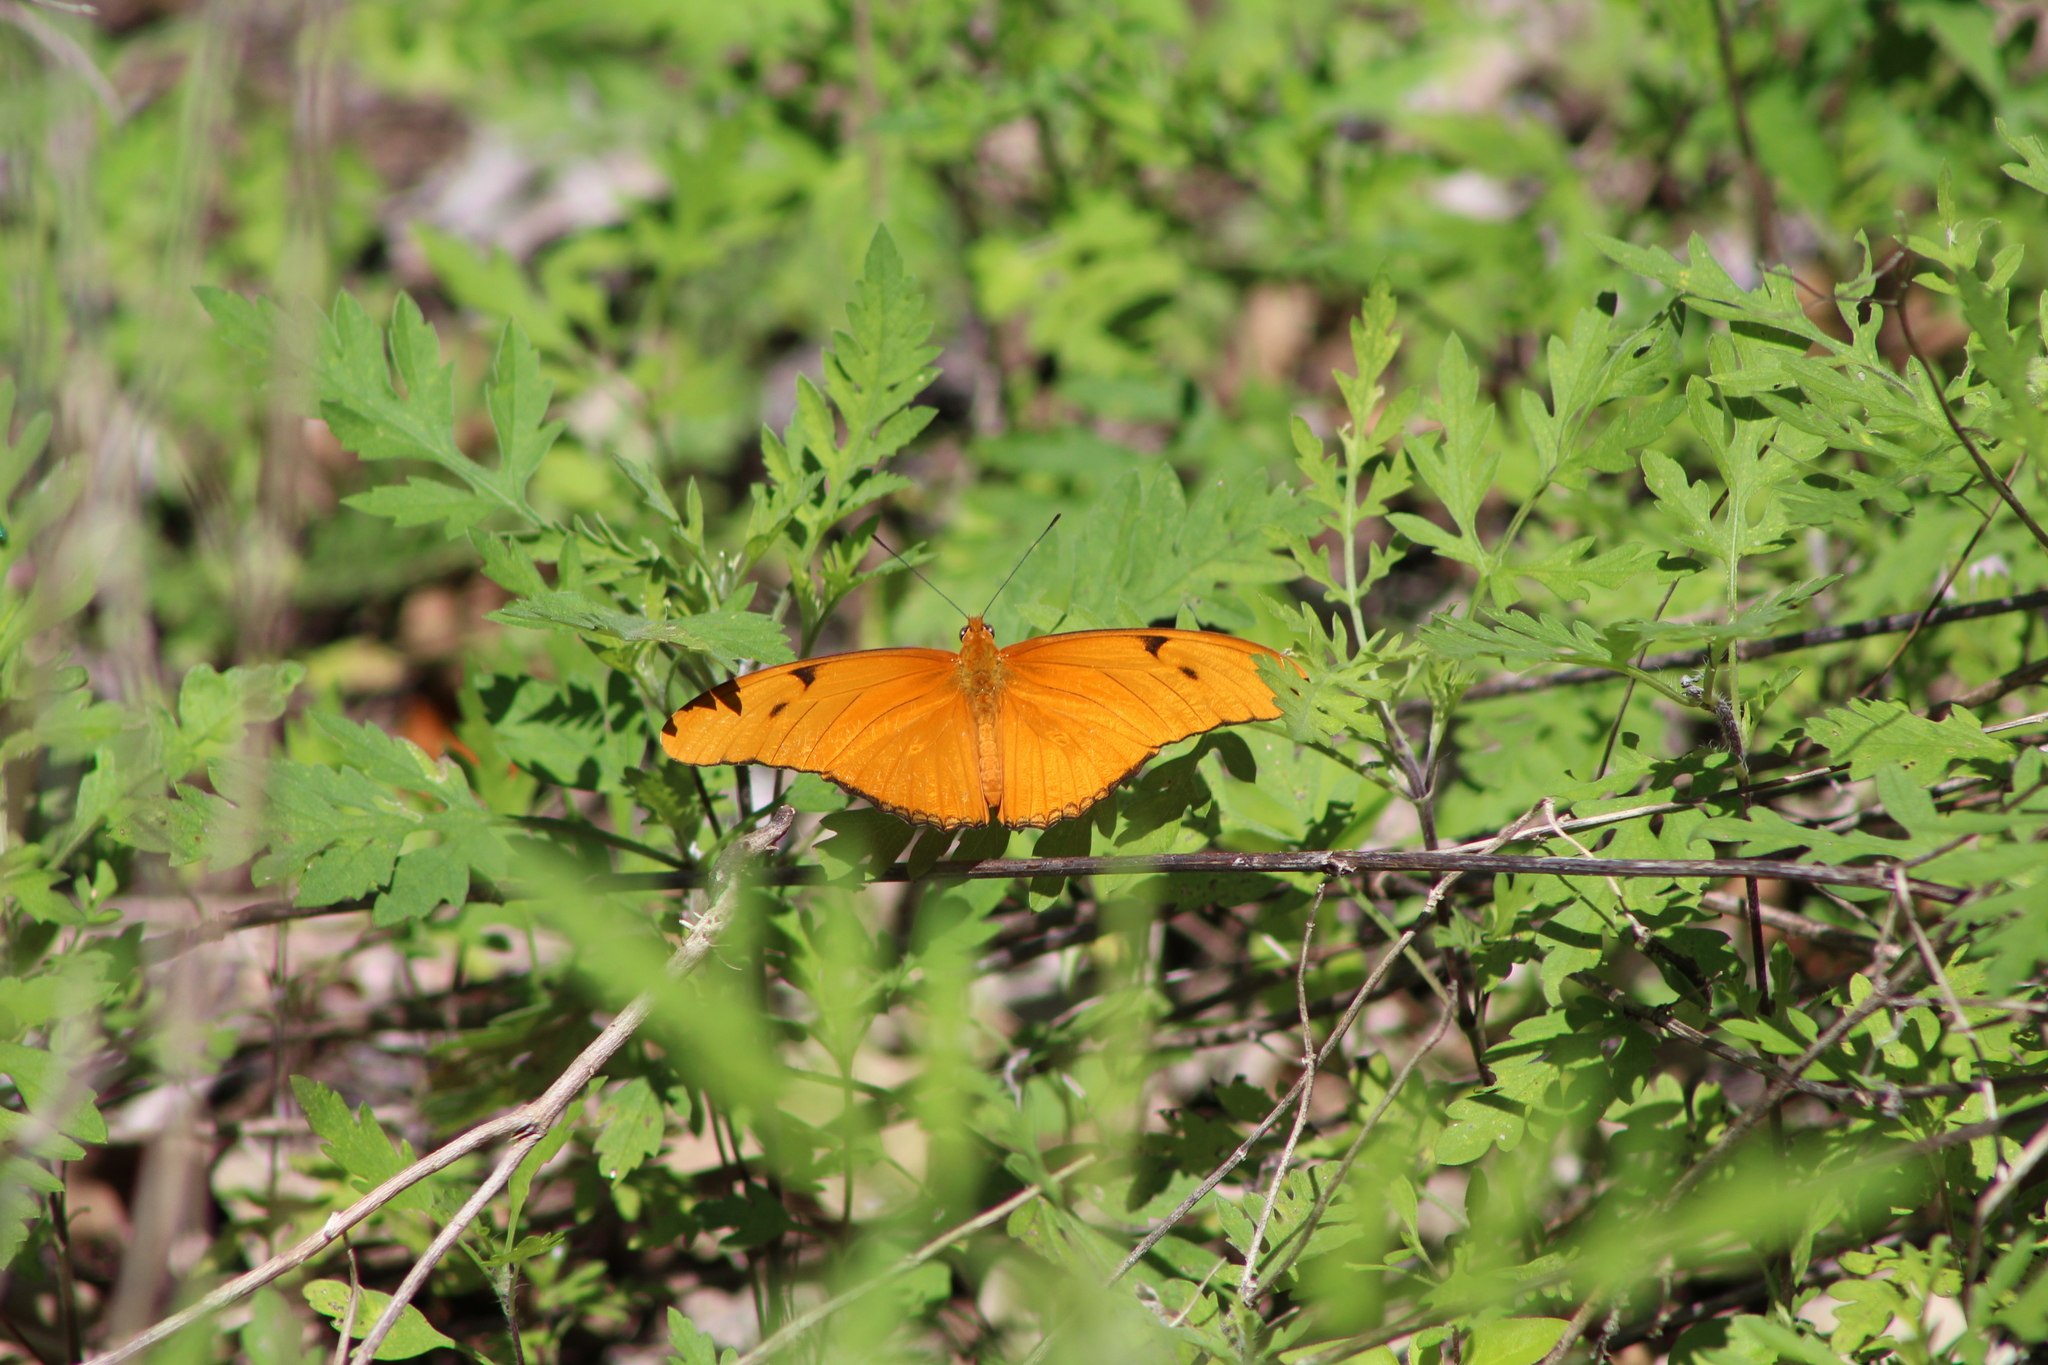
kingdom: Animalia
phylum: Arthropoda
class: Insecta
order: Lepidoptera
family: Nymphalidae
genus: Dryas
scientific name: Dryas iulia
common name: Flambeau
